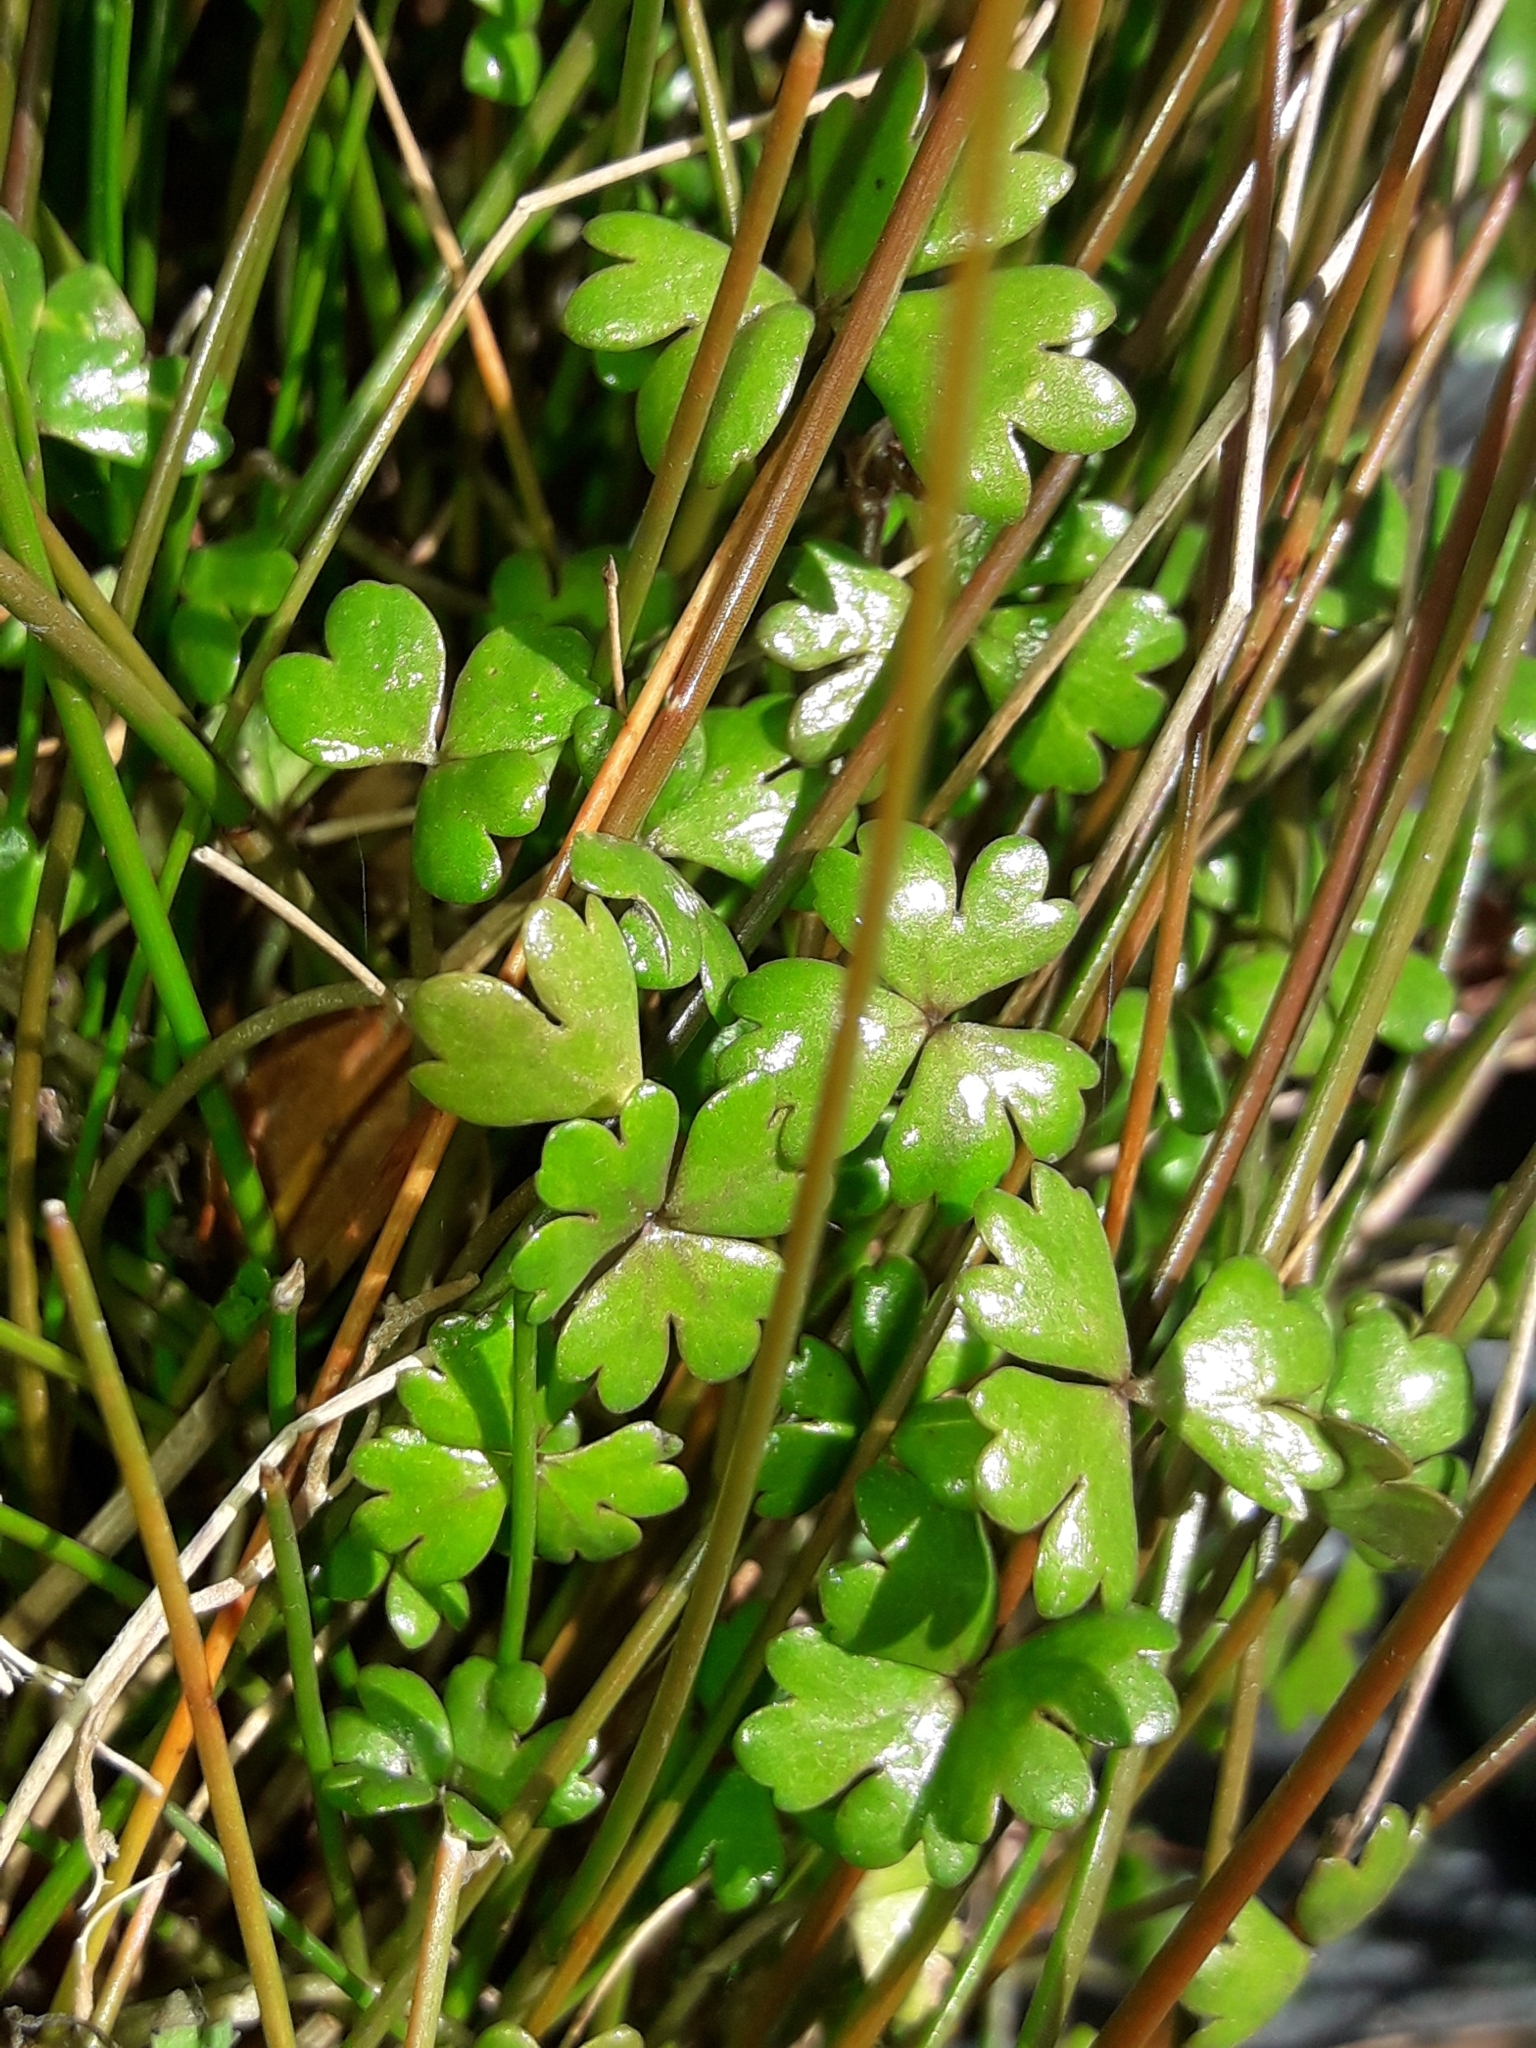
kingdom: Plantae
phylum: Tracheophyta
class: Magnoliopsida
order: Apiales
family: Araliaceae
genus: Hydrocotyle
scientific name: Hydrocotyle sulcata
